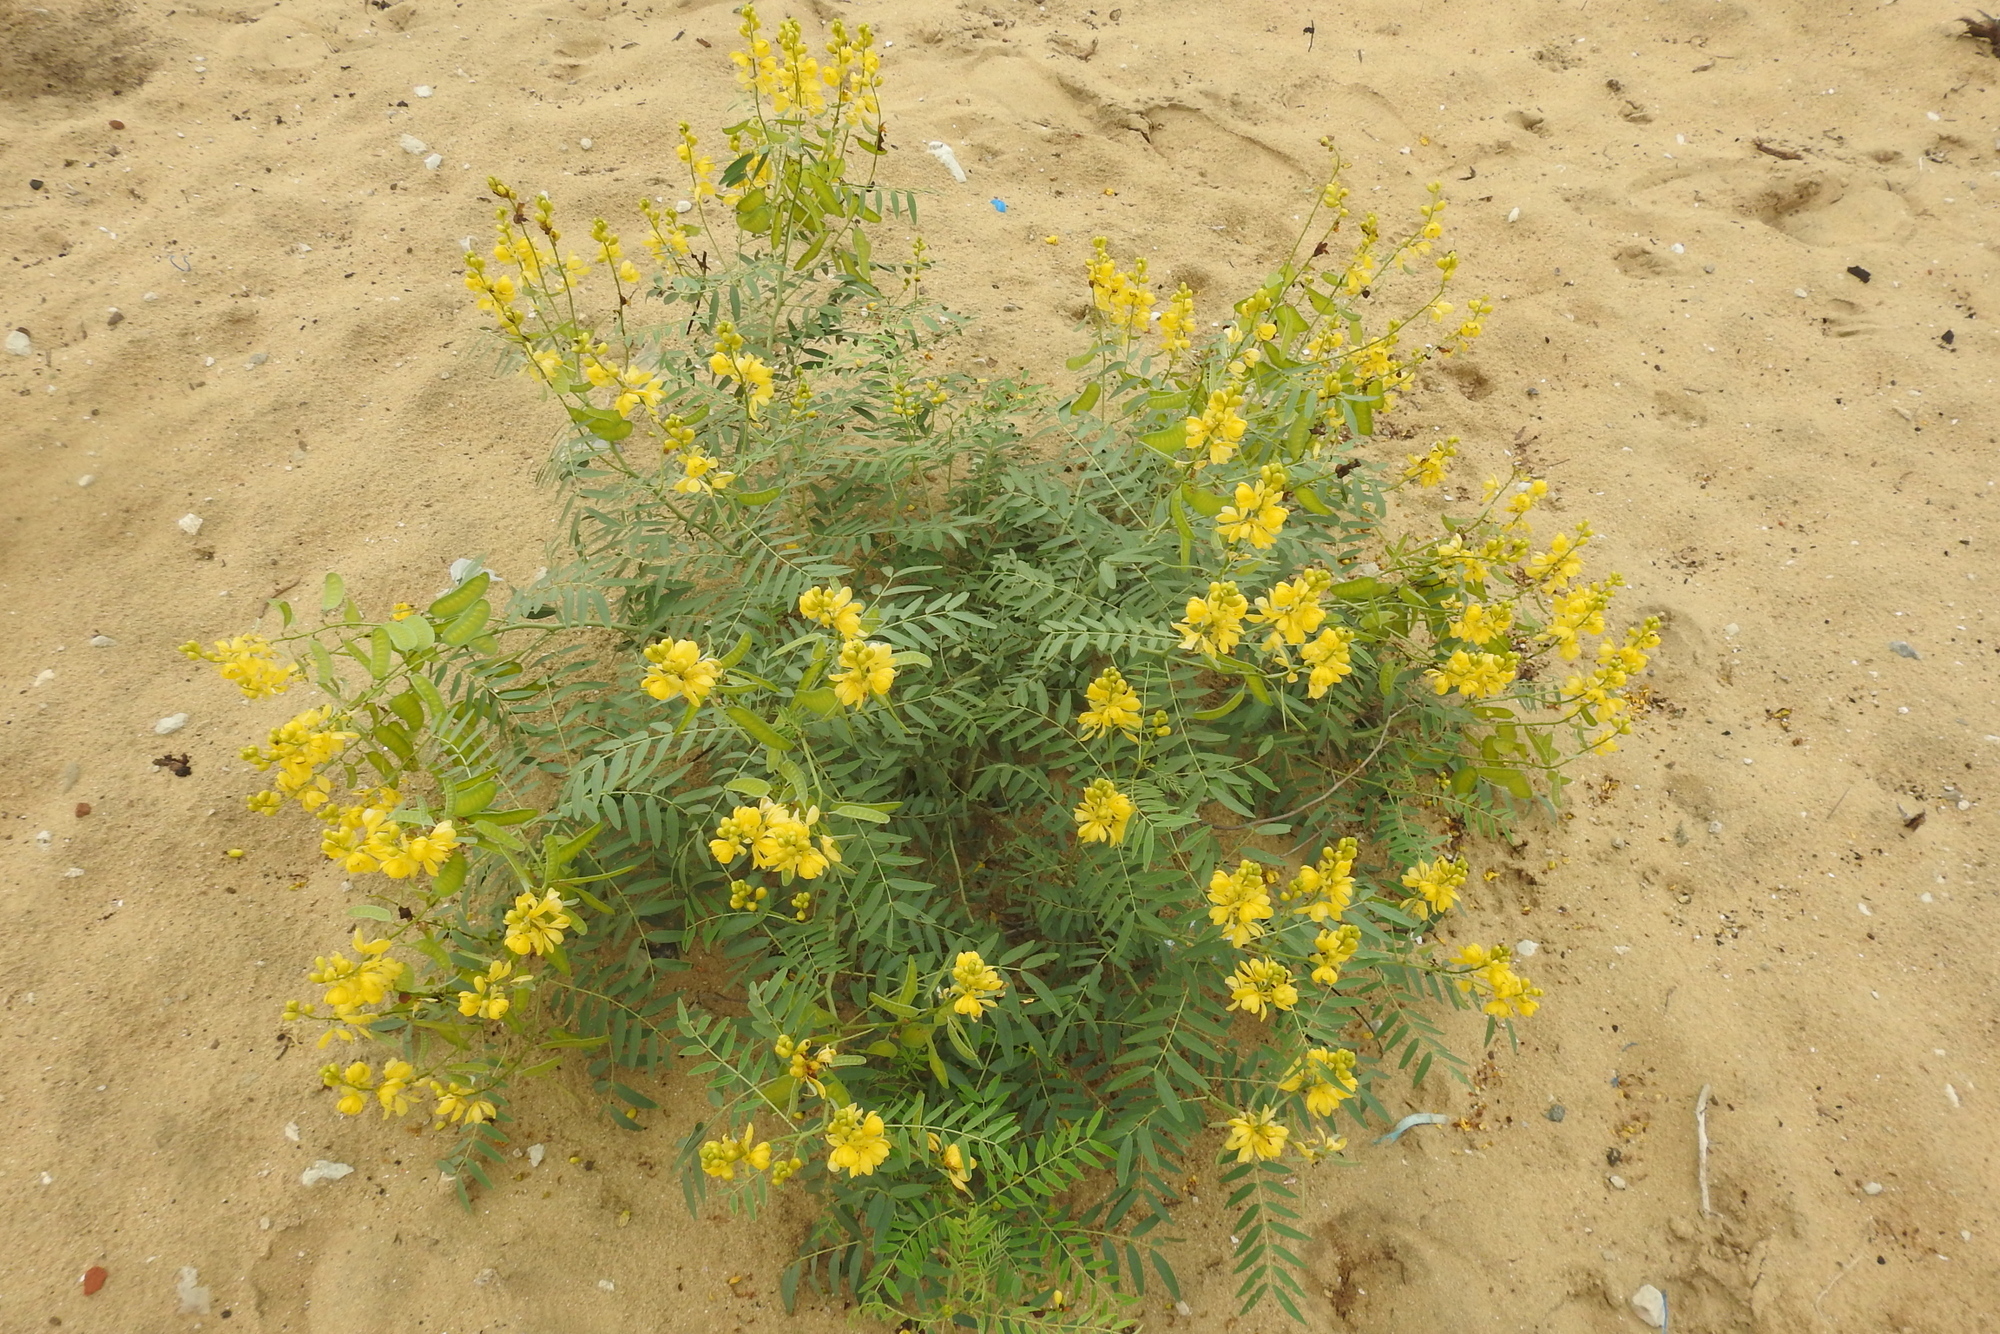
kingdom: Plantae
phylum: Tracheophyta
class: Magnoliopsida
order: Fabales
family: Fabaceae
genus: Senna
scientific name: Senna alexandrina
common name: True senna
